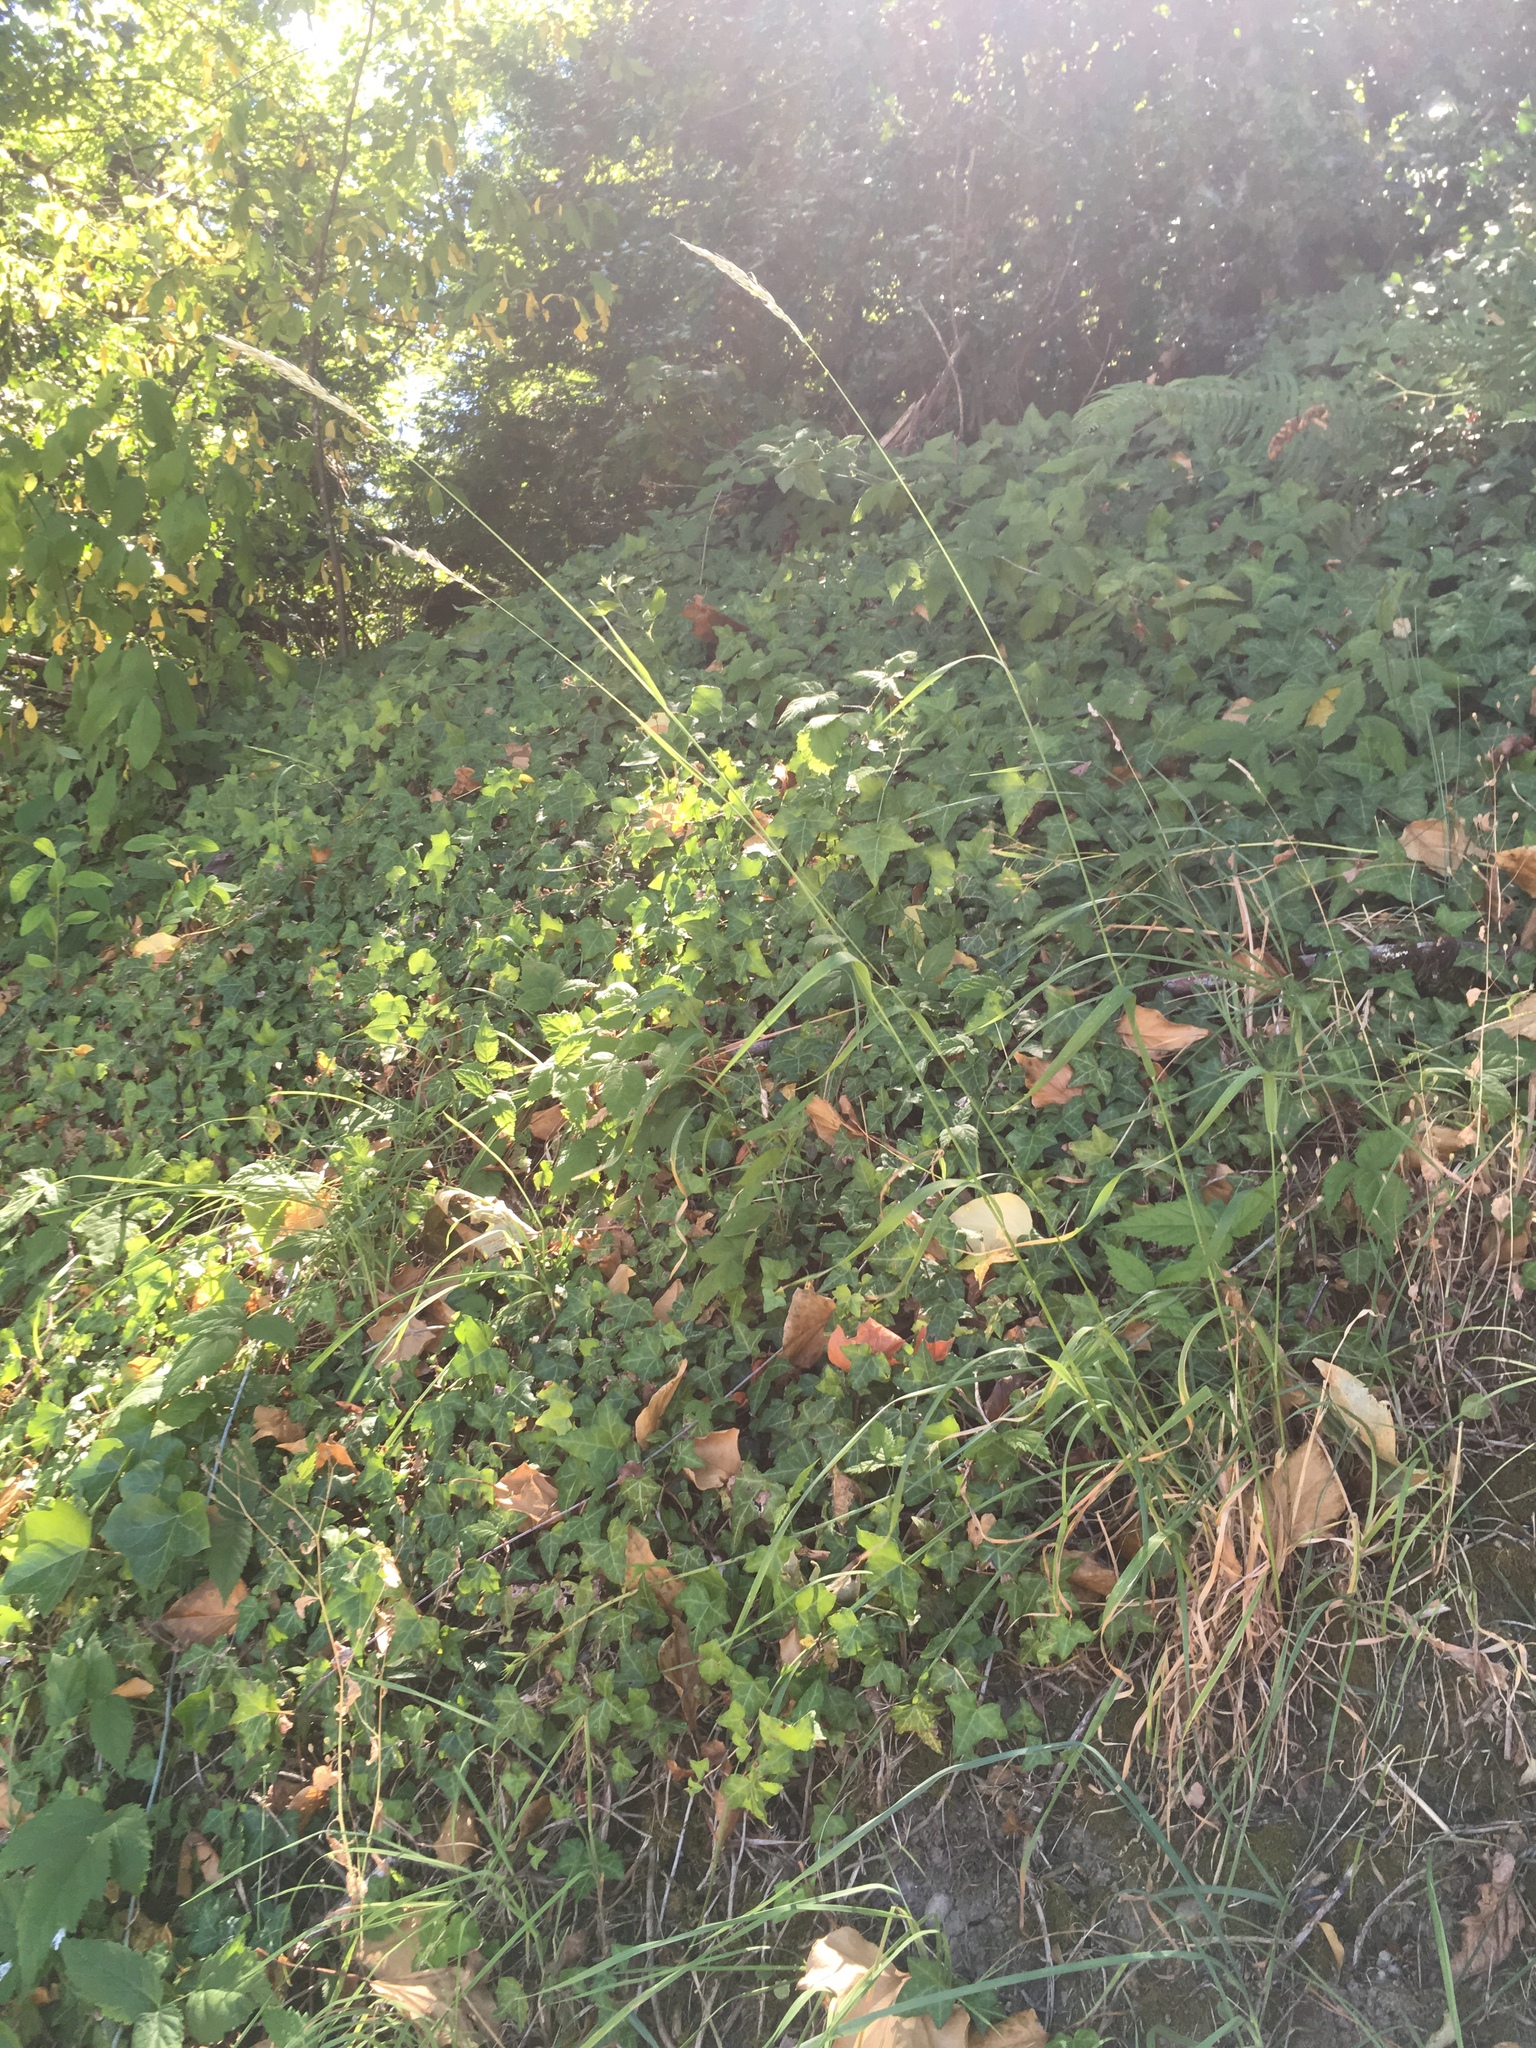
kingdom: Plantae
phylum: Tracheophyta
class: Liliopsida
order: Poales
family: Poaceae
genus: Elymus
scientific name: Elymus glaucus
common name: Blue wild rye
